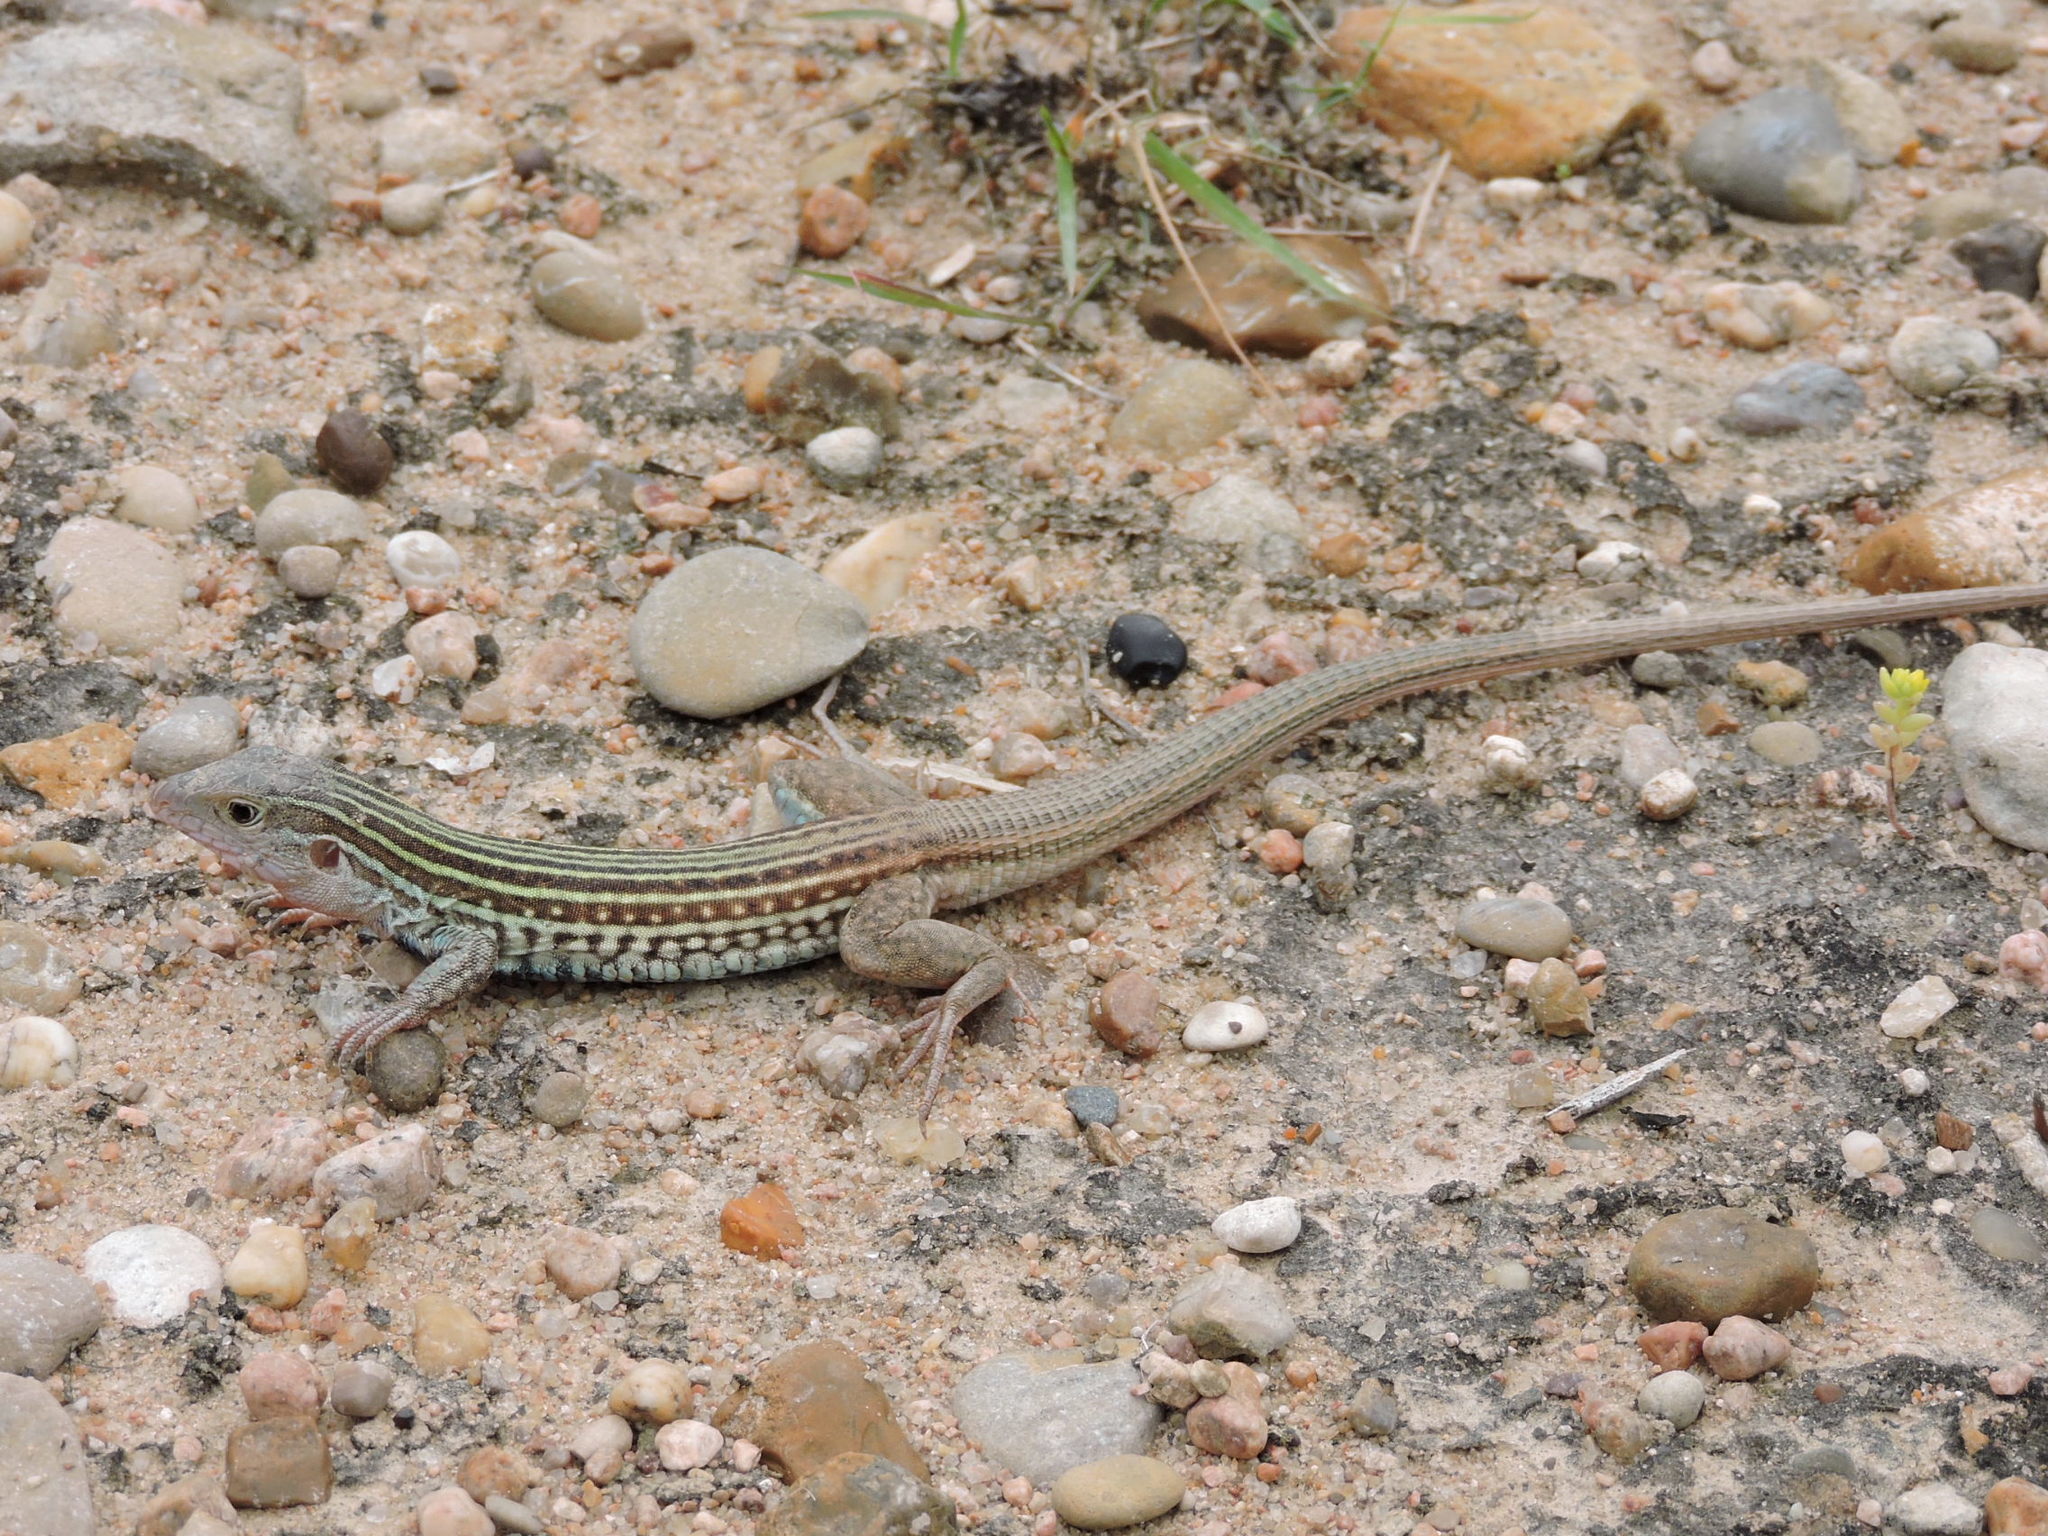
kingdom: Animalia
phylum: Chordata
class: Squamata
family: Teiidae
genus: Aspidoscelis
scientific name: Aspidoscelis gularis
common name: Eastern spotted whiptail
